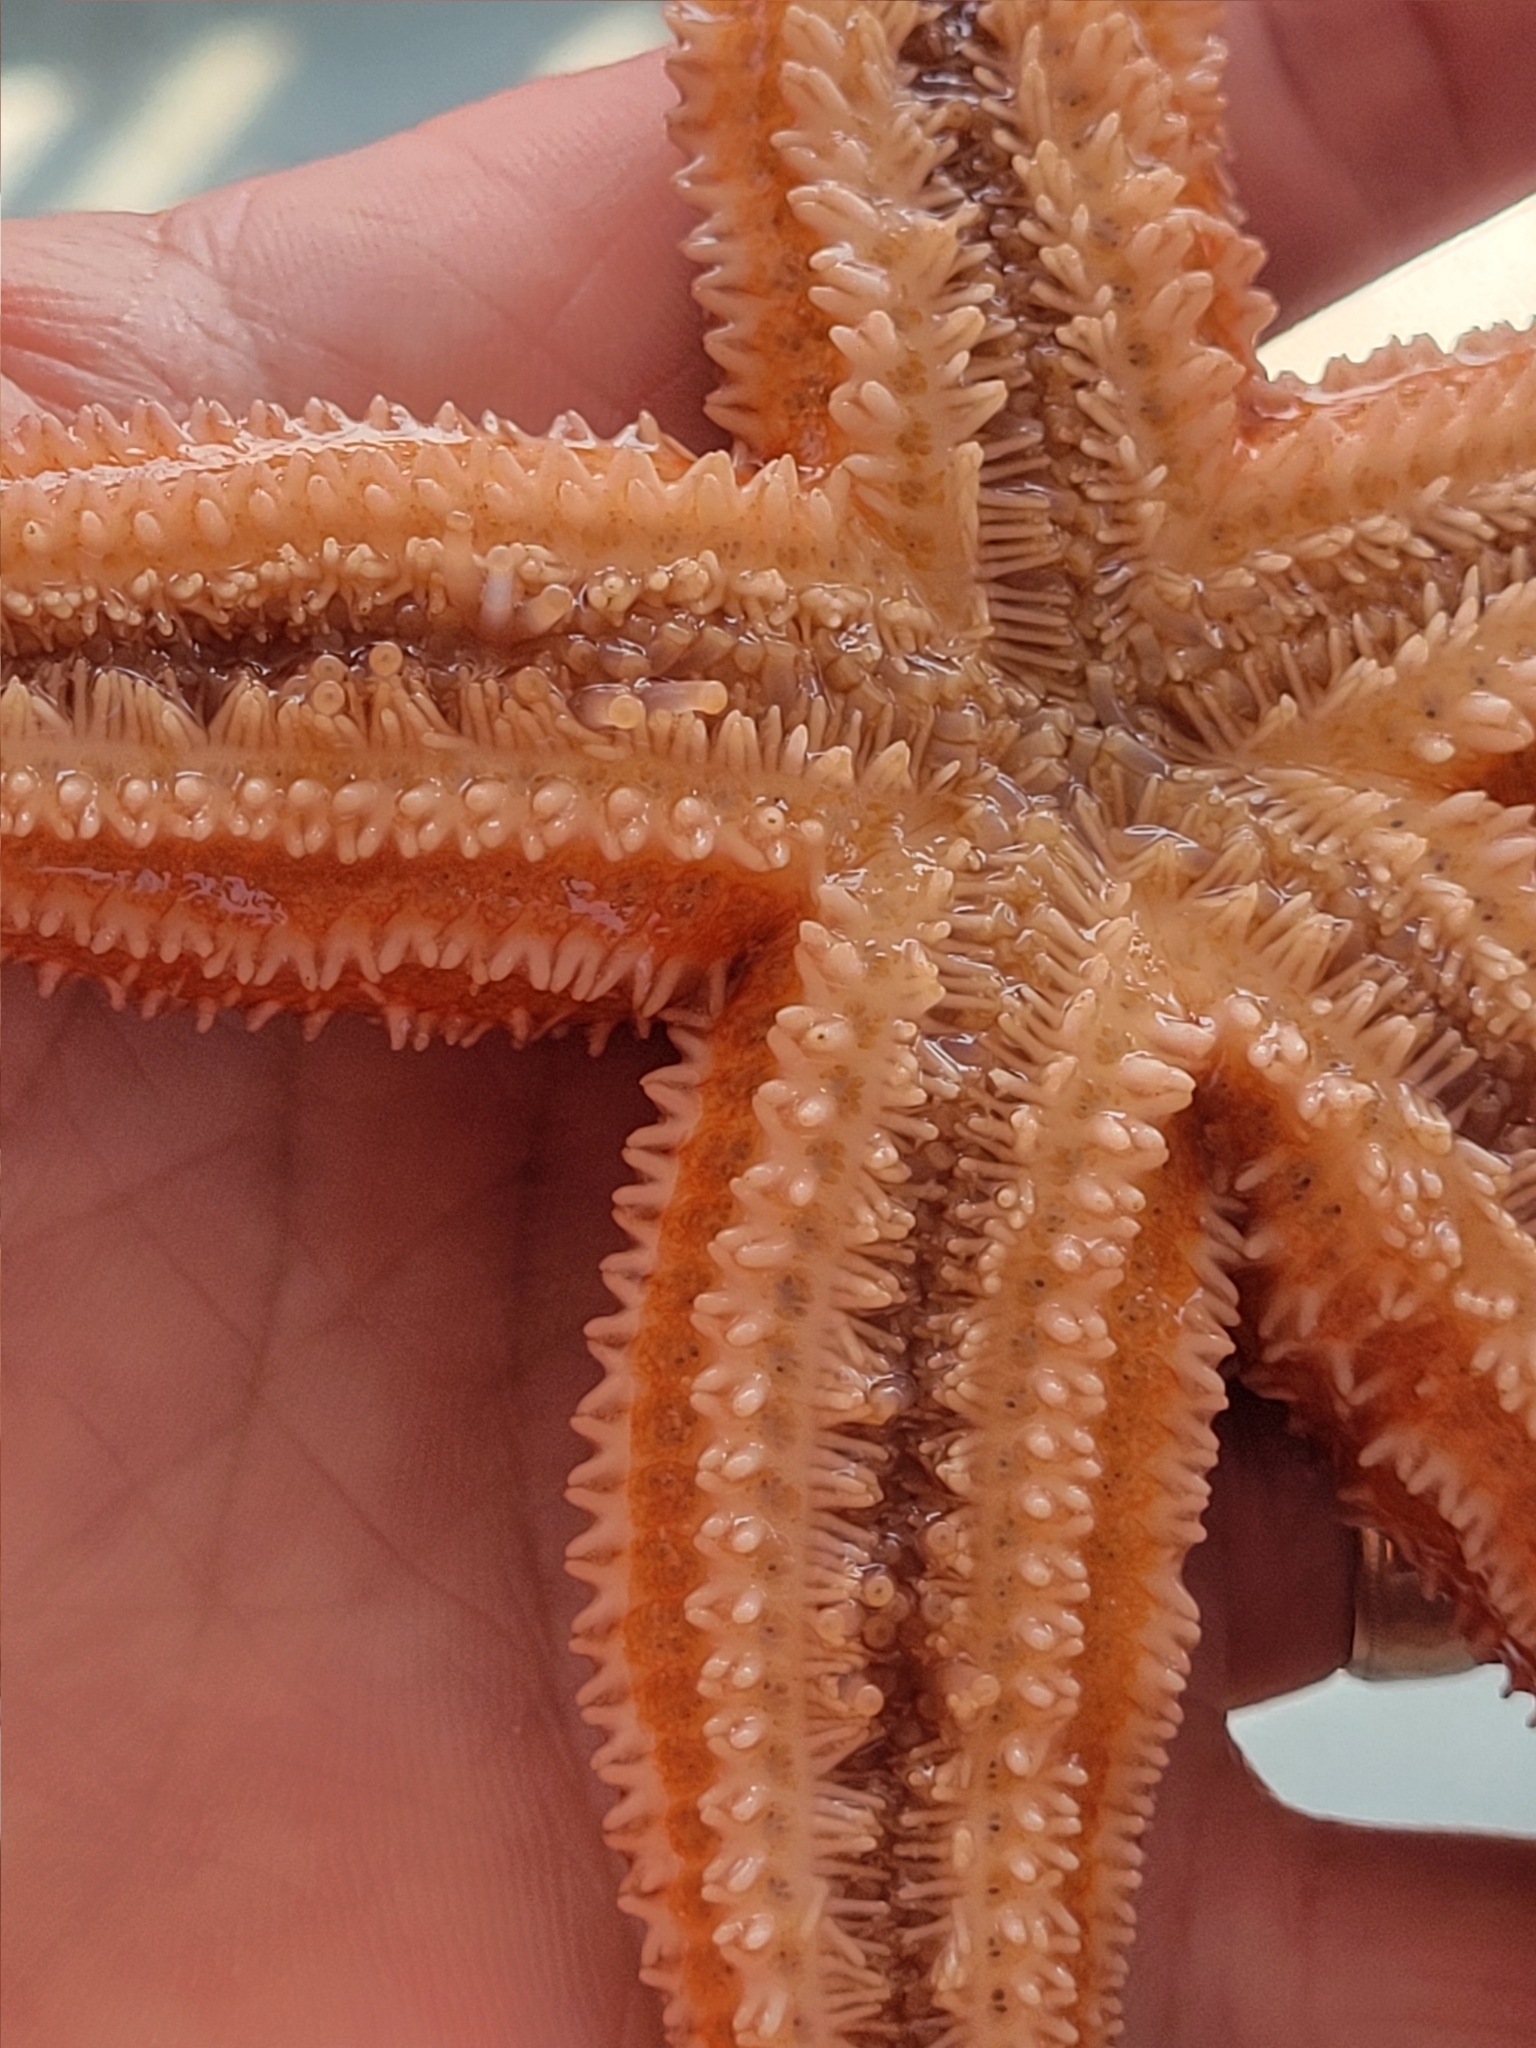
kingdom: Animalia
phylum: Echinodermata
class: Asteroidea
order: Forcipulatida
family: Asteriidae
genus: Asterias
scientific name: Asterias rubens
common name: Common starfish
